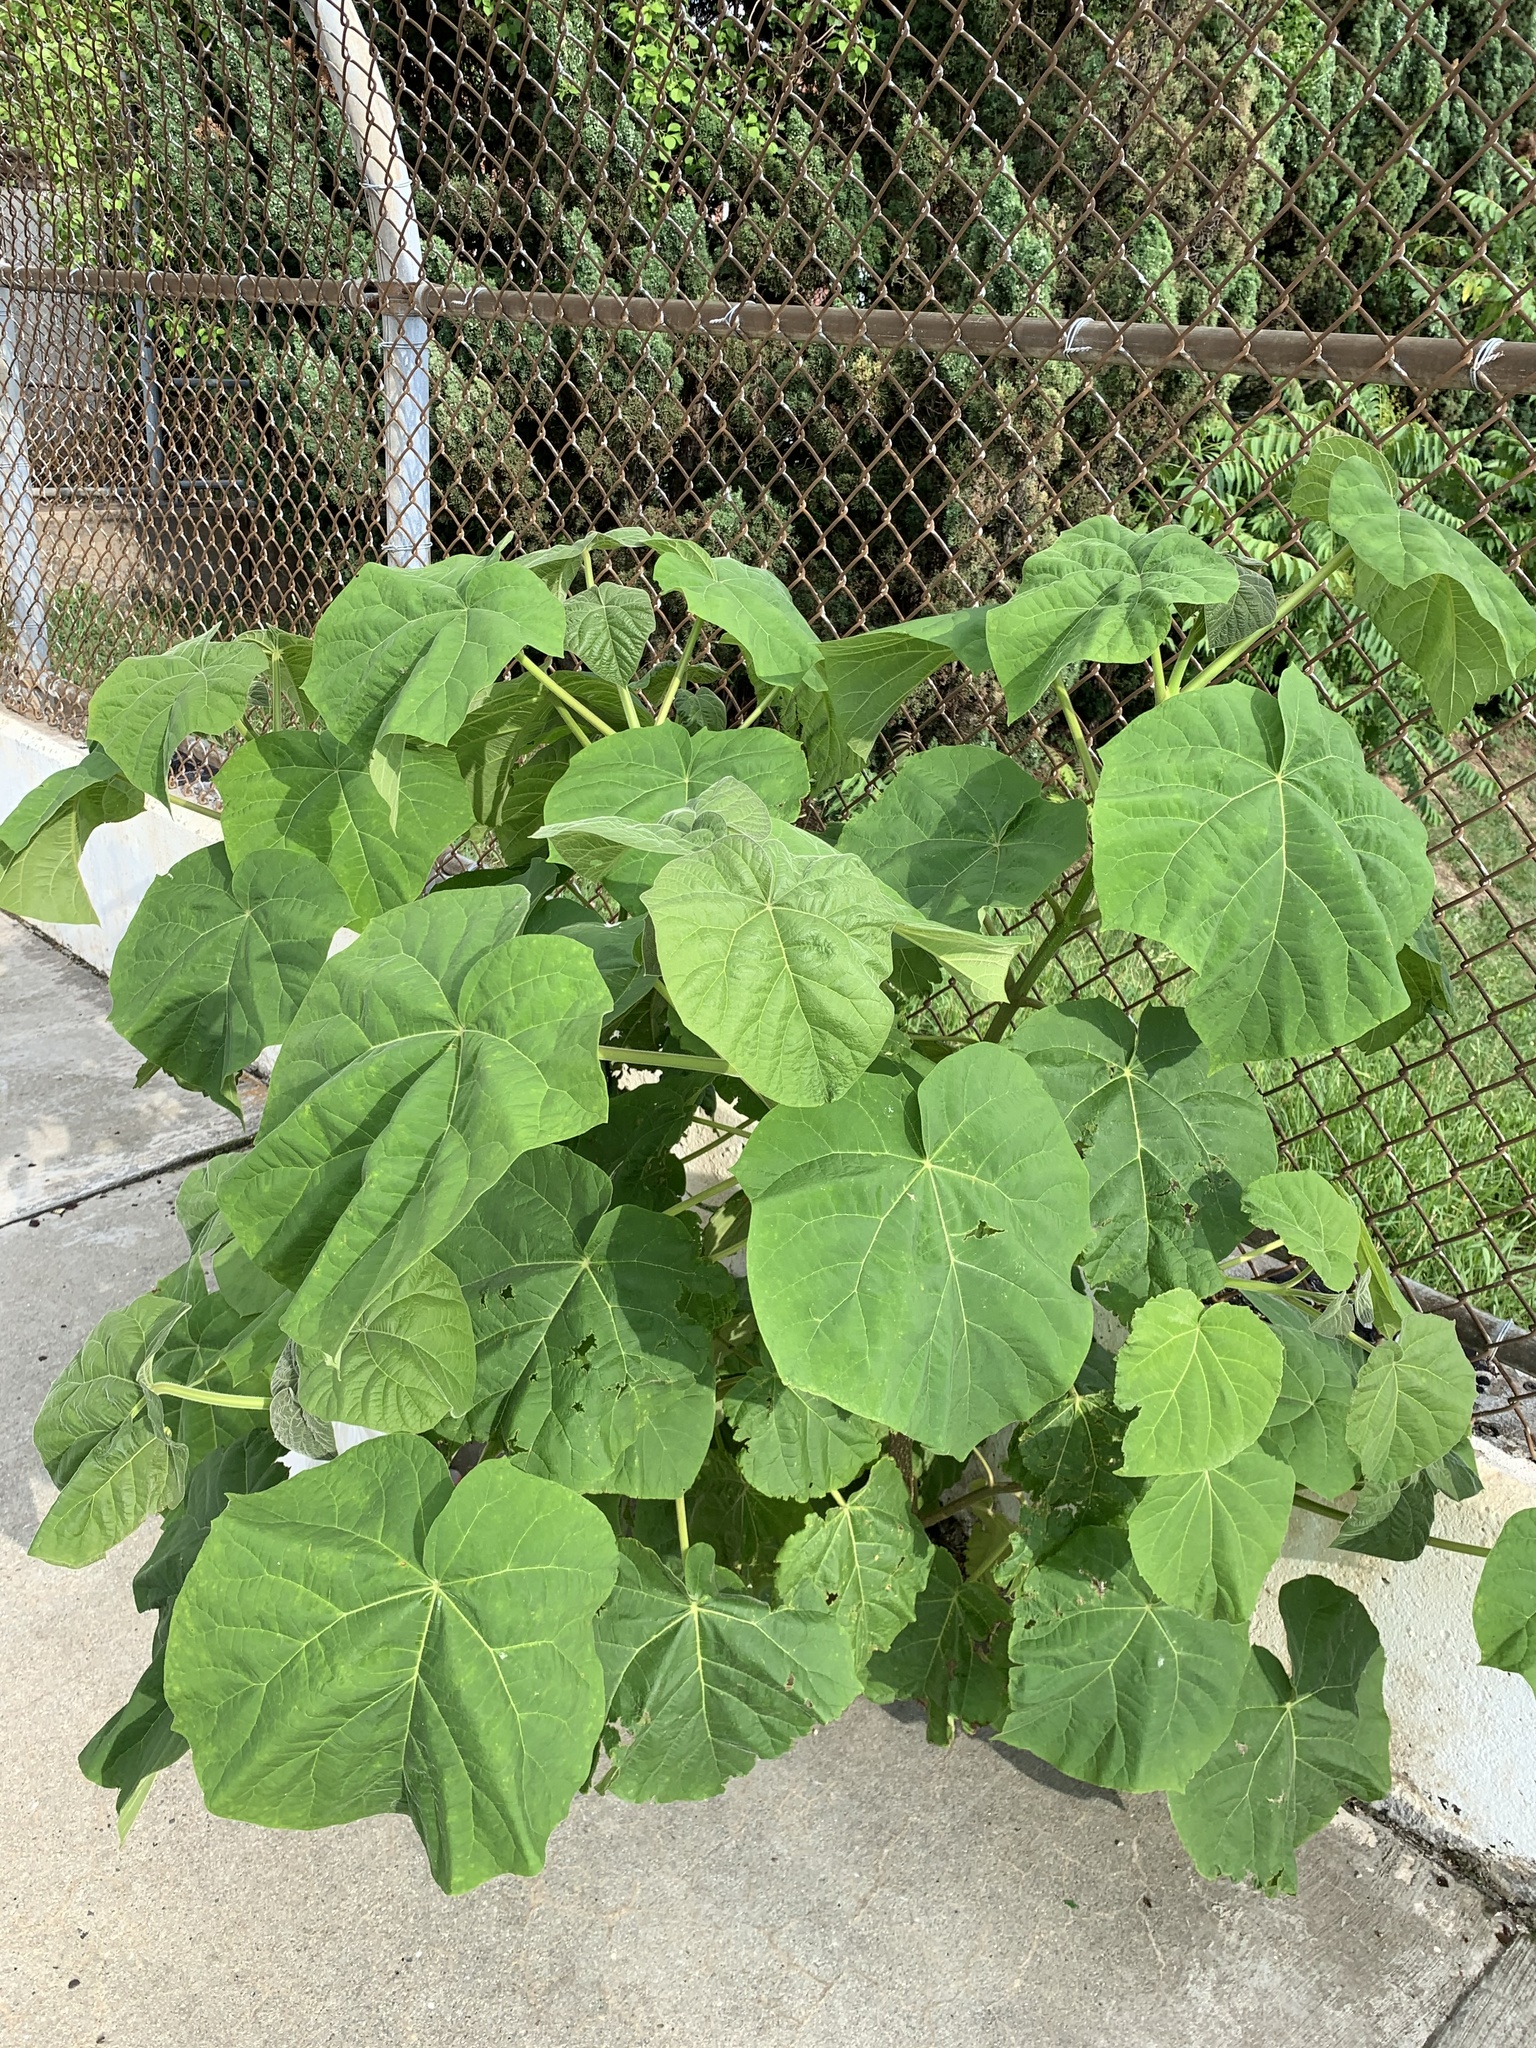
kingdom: Plantae
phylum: Tracheophyta
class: Magnoliopsida
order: Lamiales
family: Paulowniaceae
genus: Paulownia
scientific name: Paulownia tomentosa
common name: Foxglove-tree
